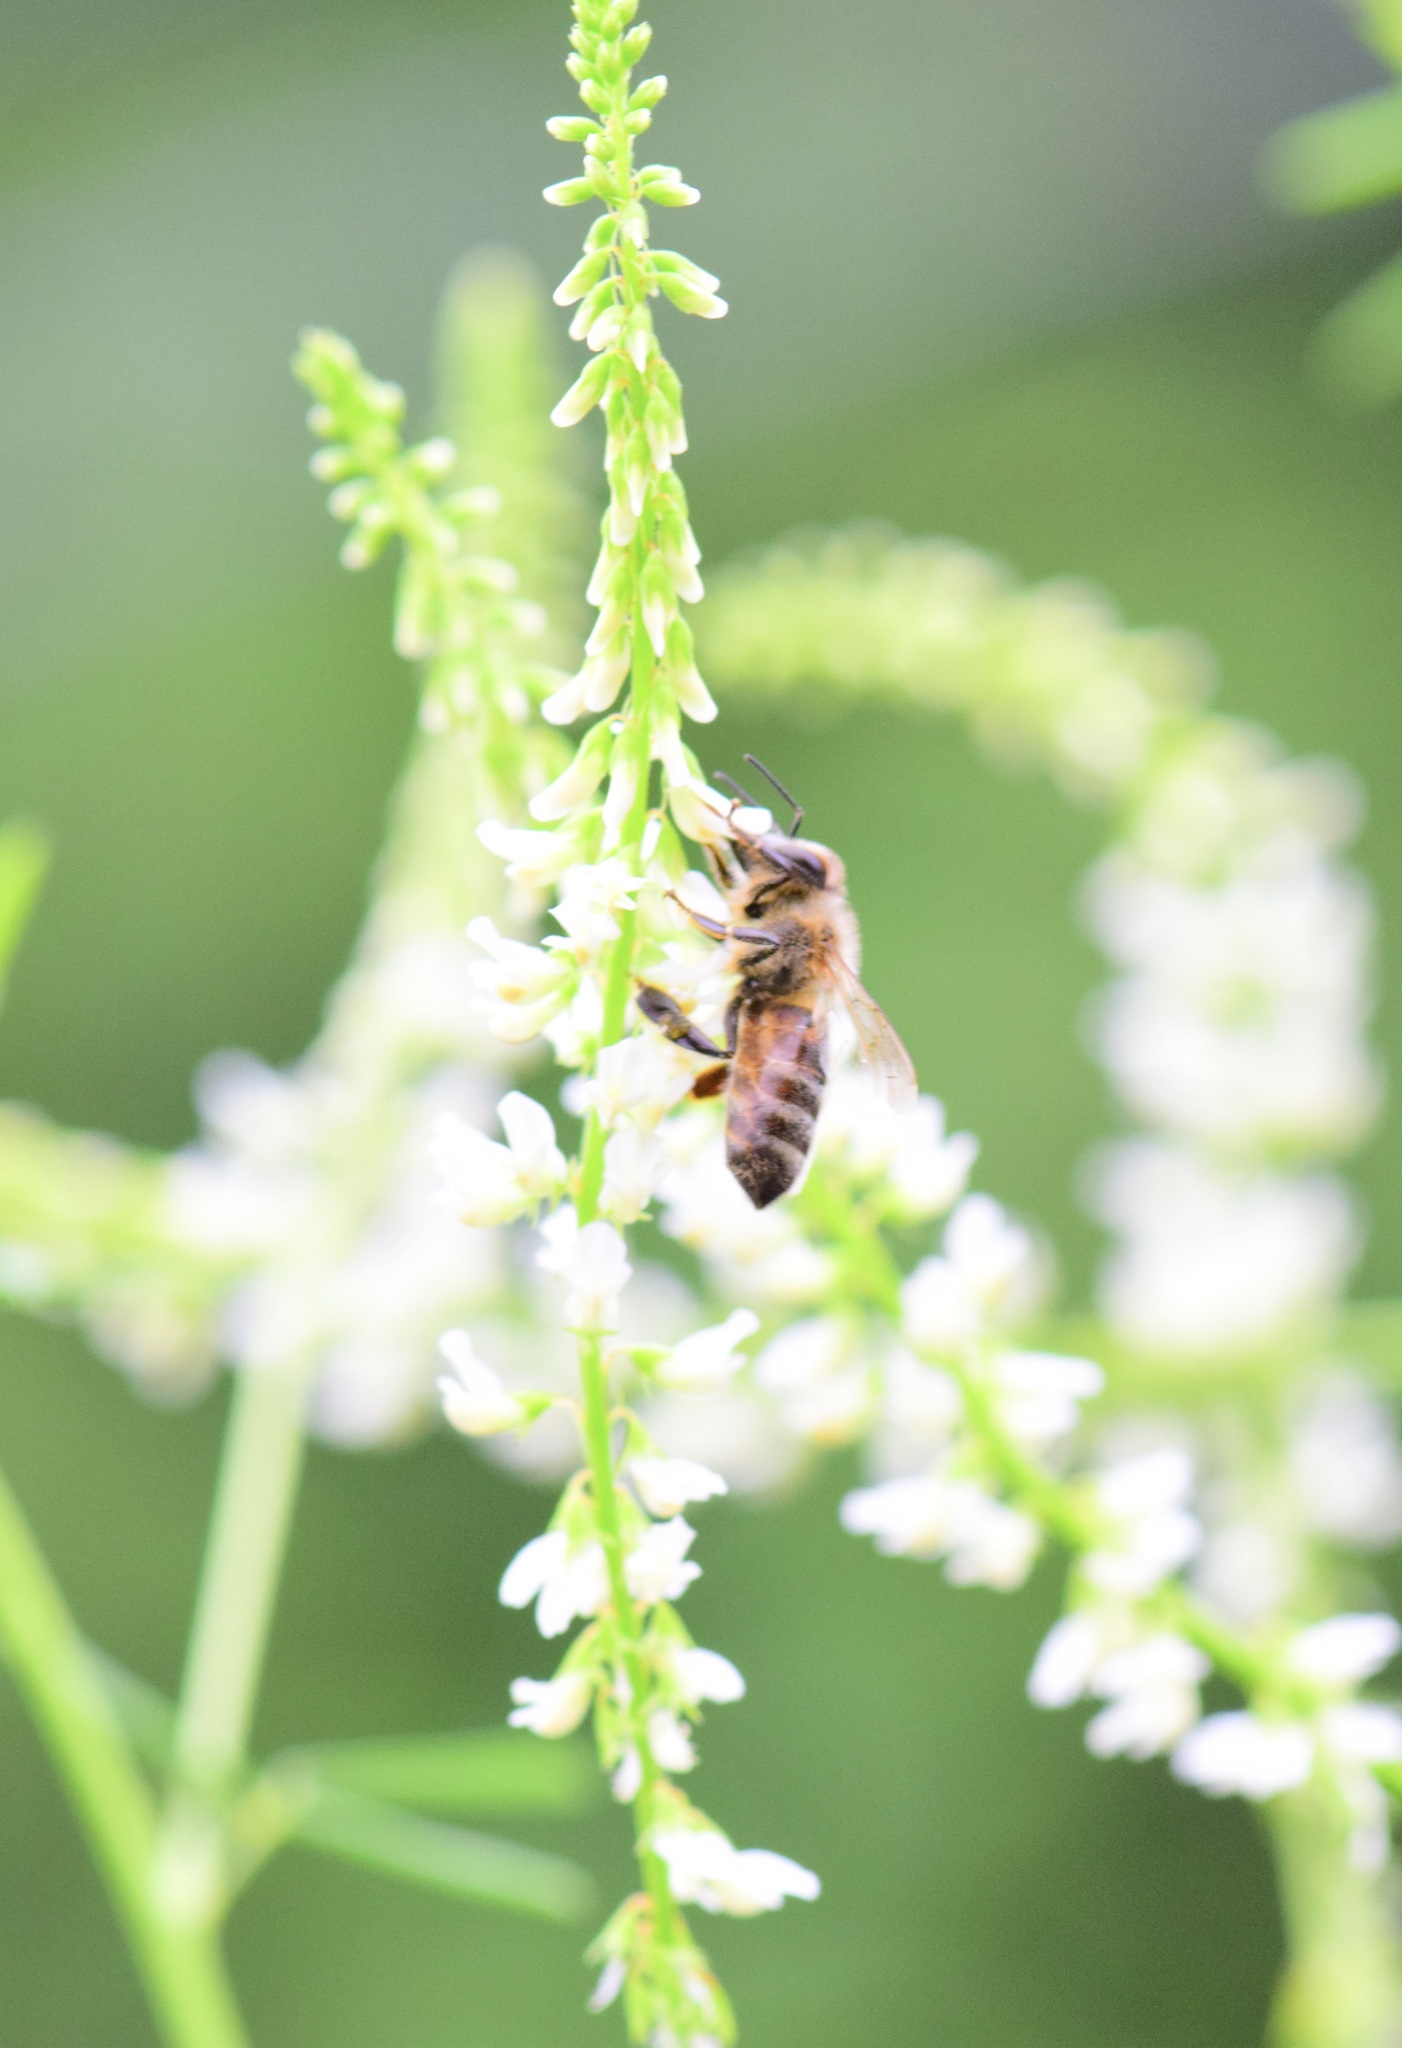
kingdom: Animalia
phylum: Arthropoda
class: Insecta
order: Hymenoptera
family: Apidae
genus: Apis
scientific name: Apis mellifera
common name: Honey bee
